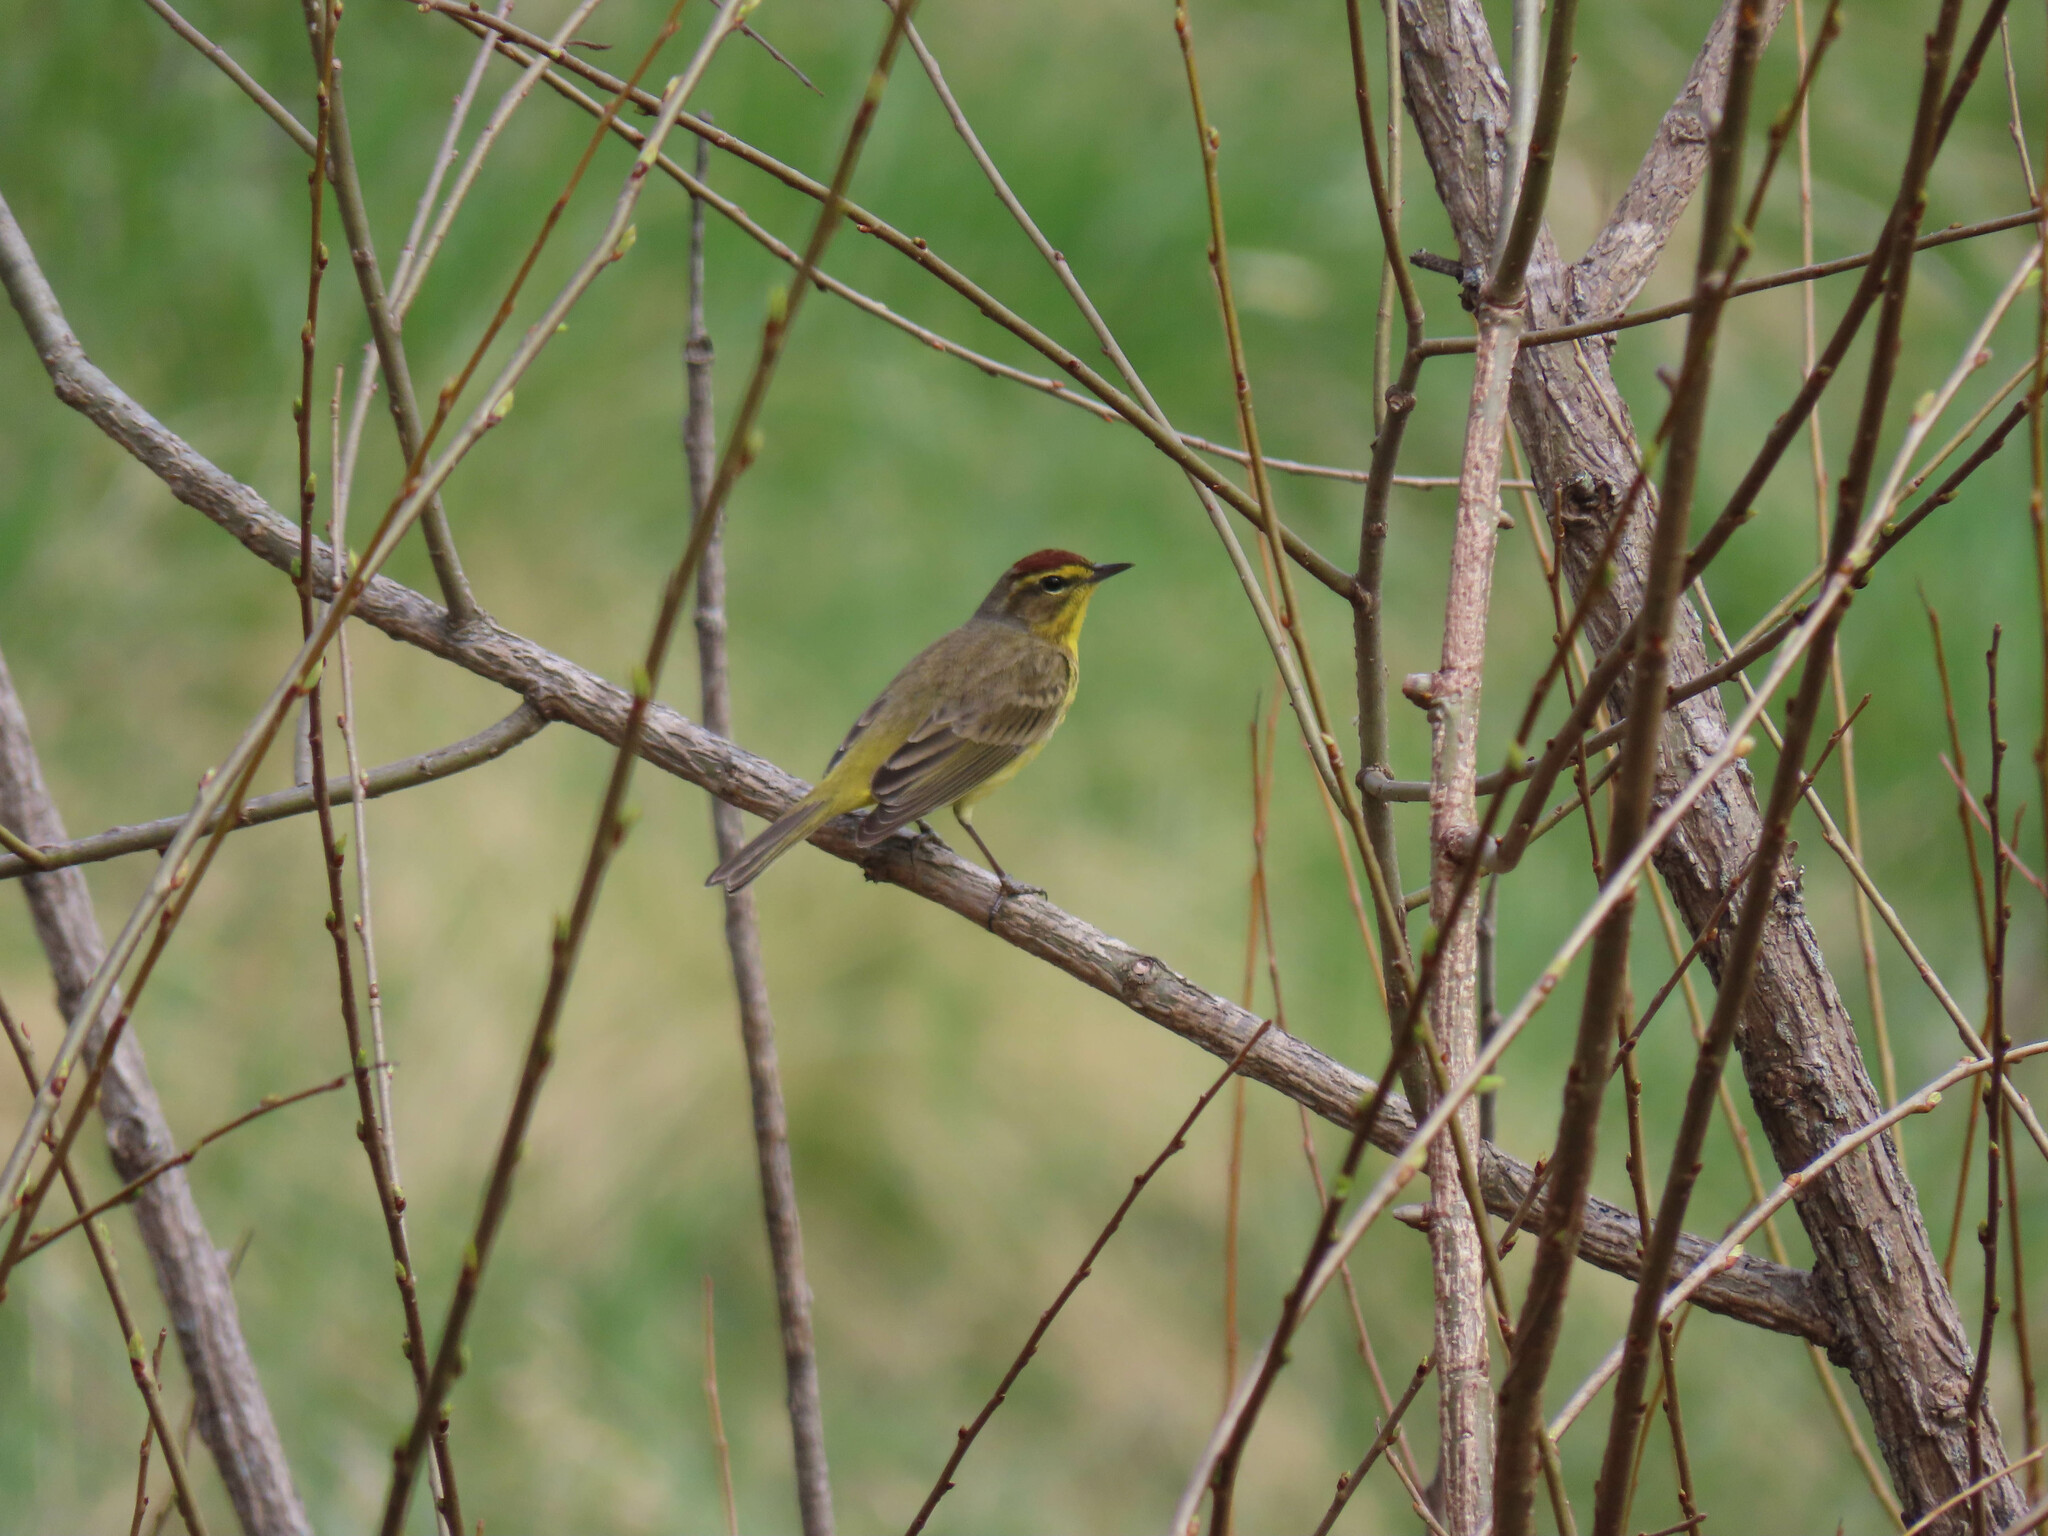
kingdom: Animalia
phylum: Chordata
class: Aves
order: Passeriformes
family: Parulidae
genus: Setophaga
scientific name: Setophaga palmarum
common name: Palm warbler
